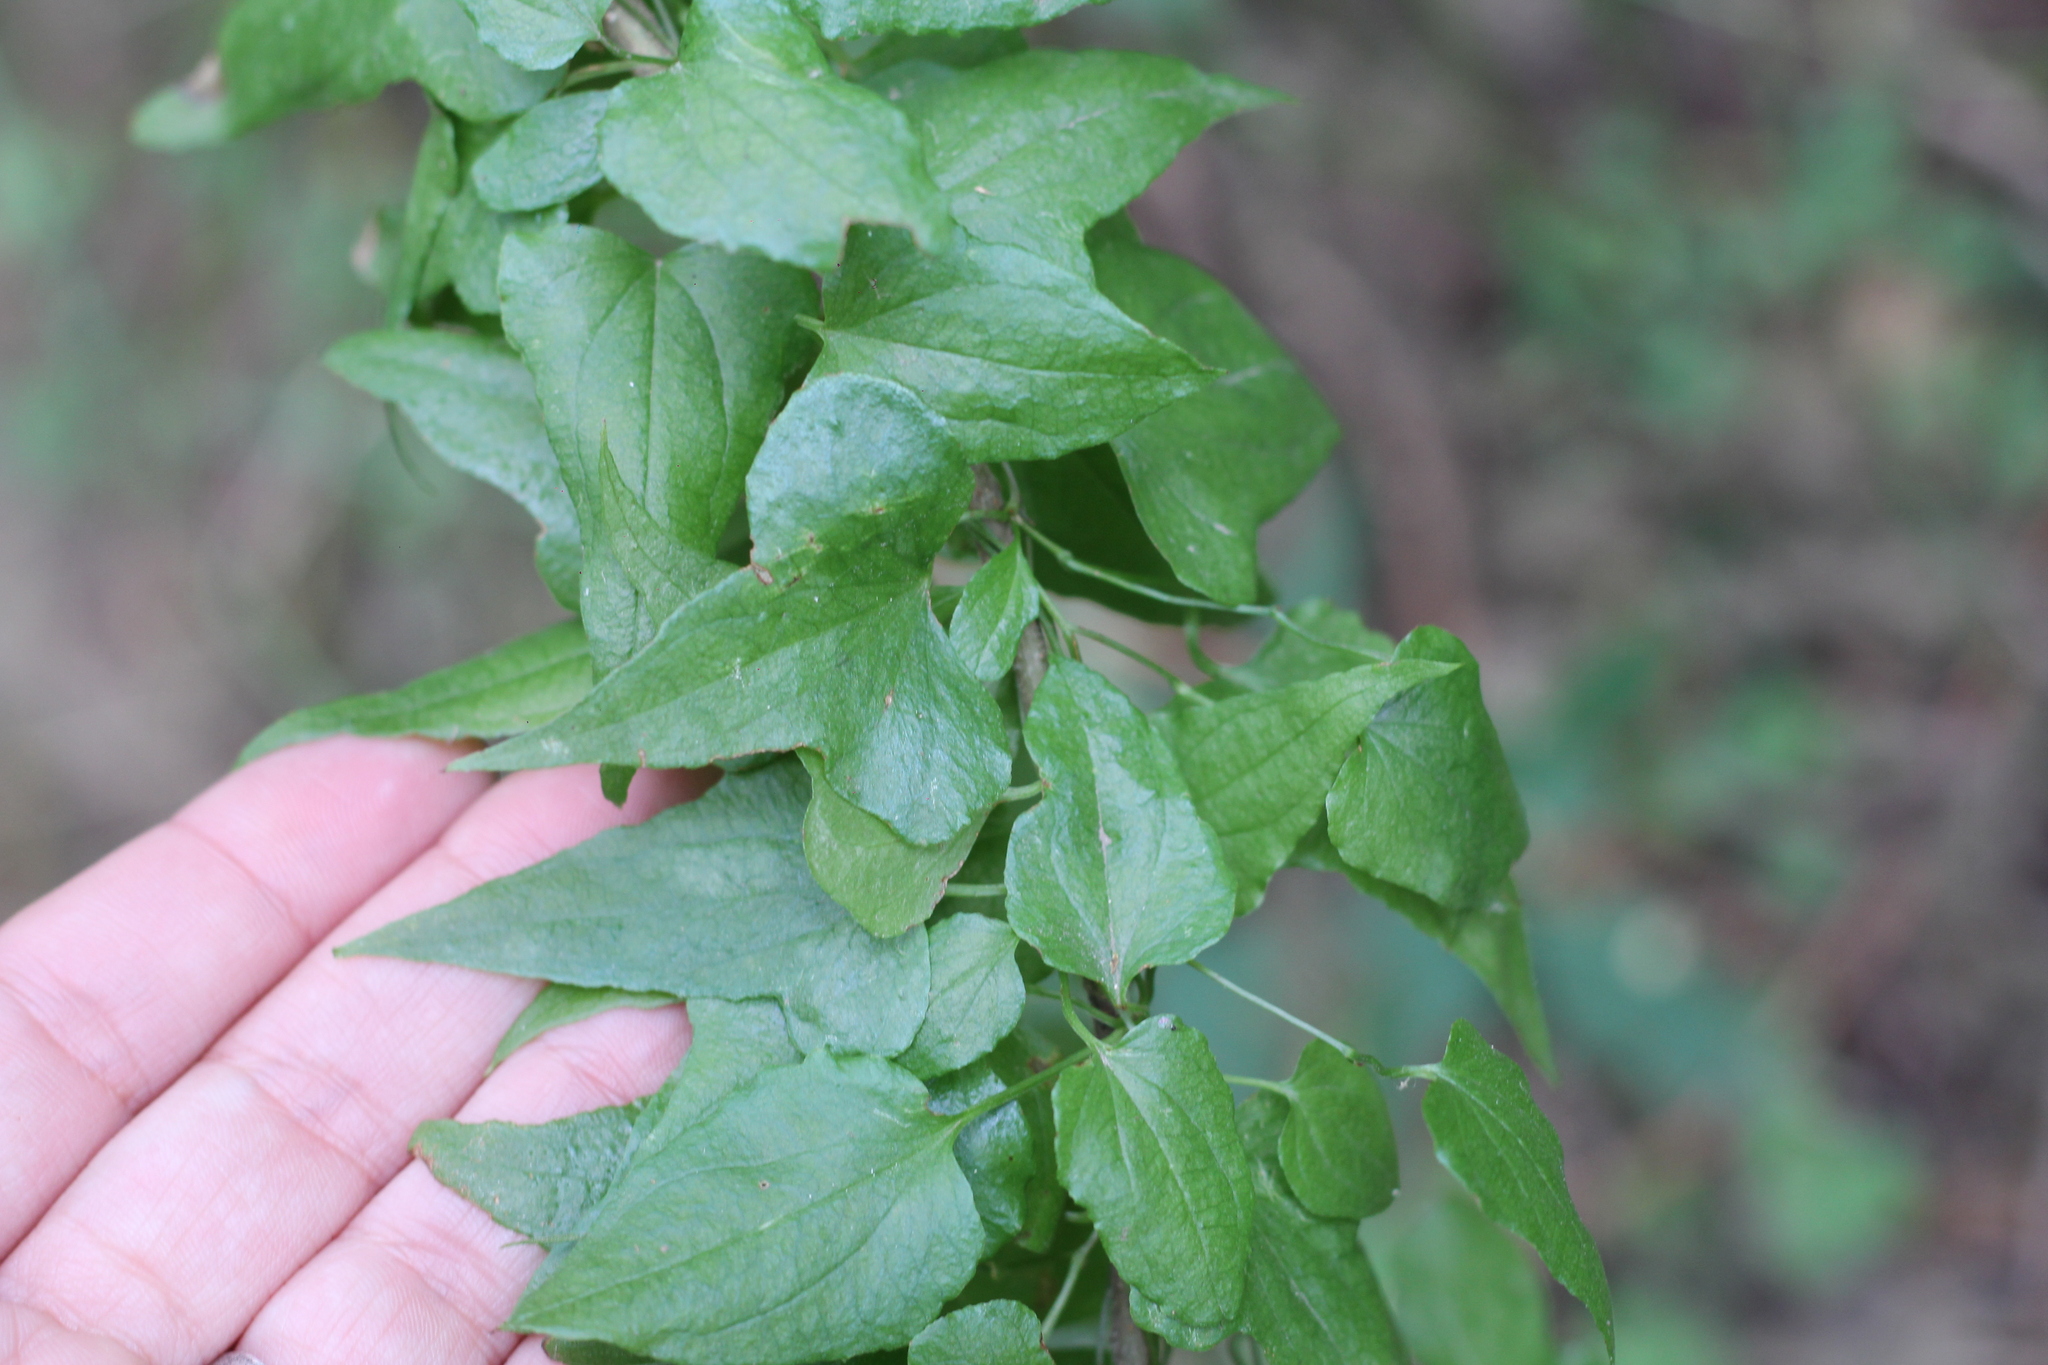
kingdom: Plantae
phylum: Tracheophyta
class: Liliopsida
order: Dioscoreales
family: Dioscoreaceae
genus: Dioscorea
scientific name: Dioscorea sinuata
